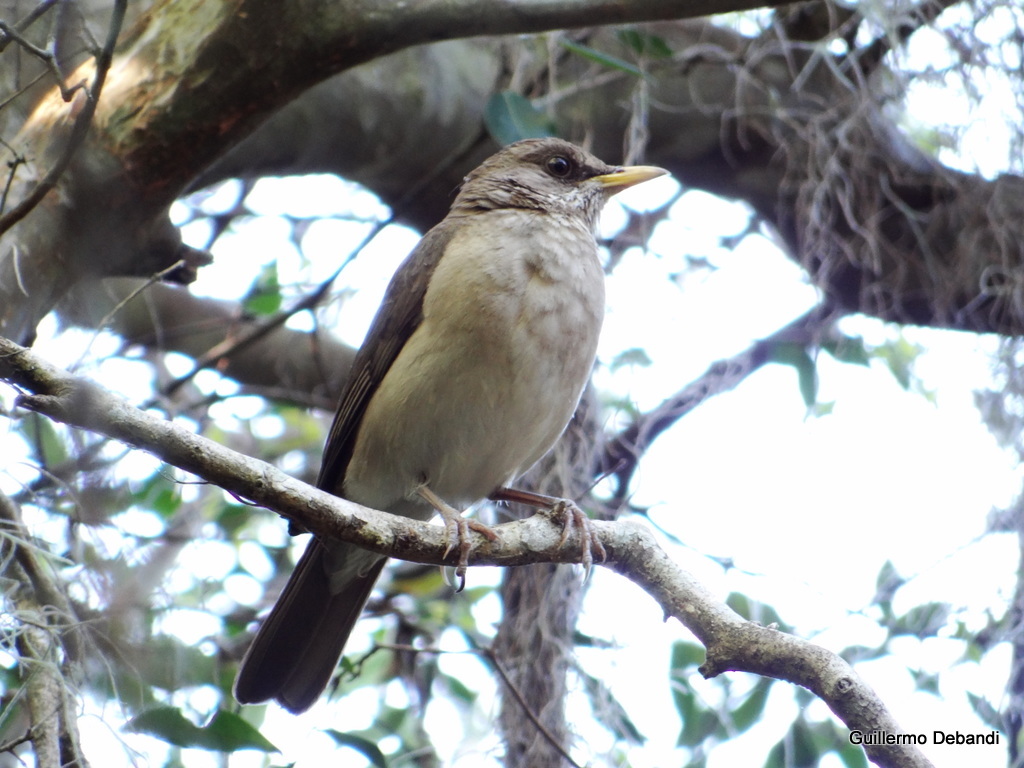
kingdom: Animalia
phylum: Chordata
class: Aves
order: Passeriformes
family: Turdidae
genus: Turdus
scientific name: Turdus amaurochalinus
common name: Creamy-bellied thrush
